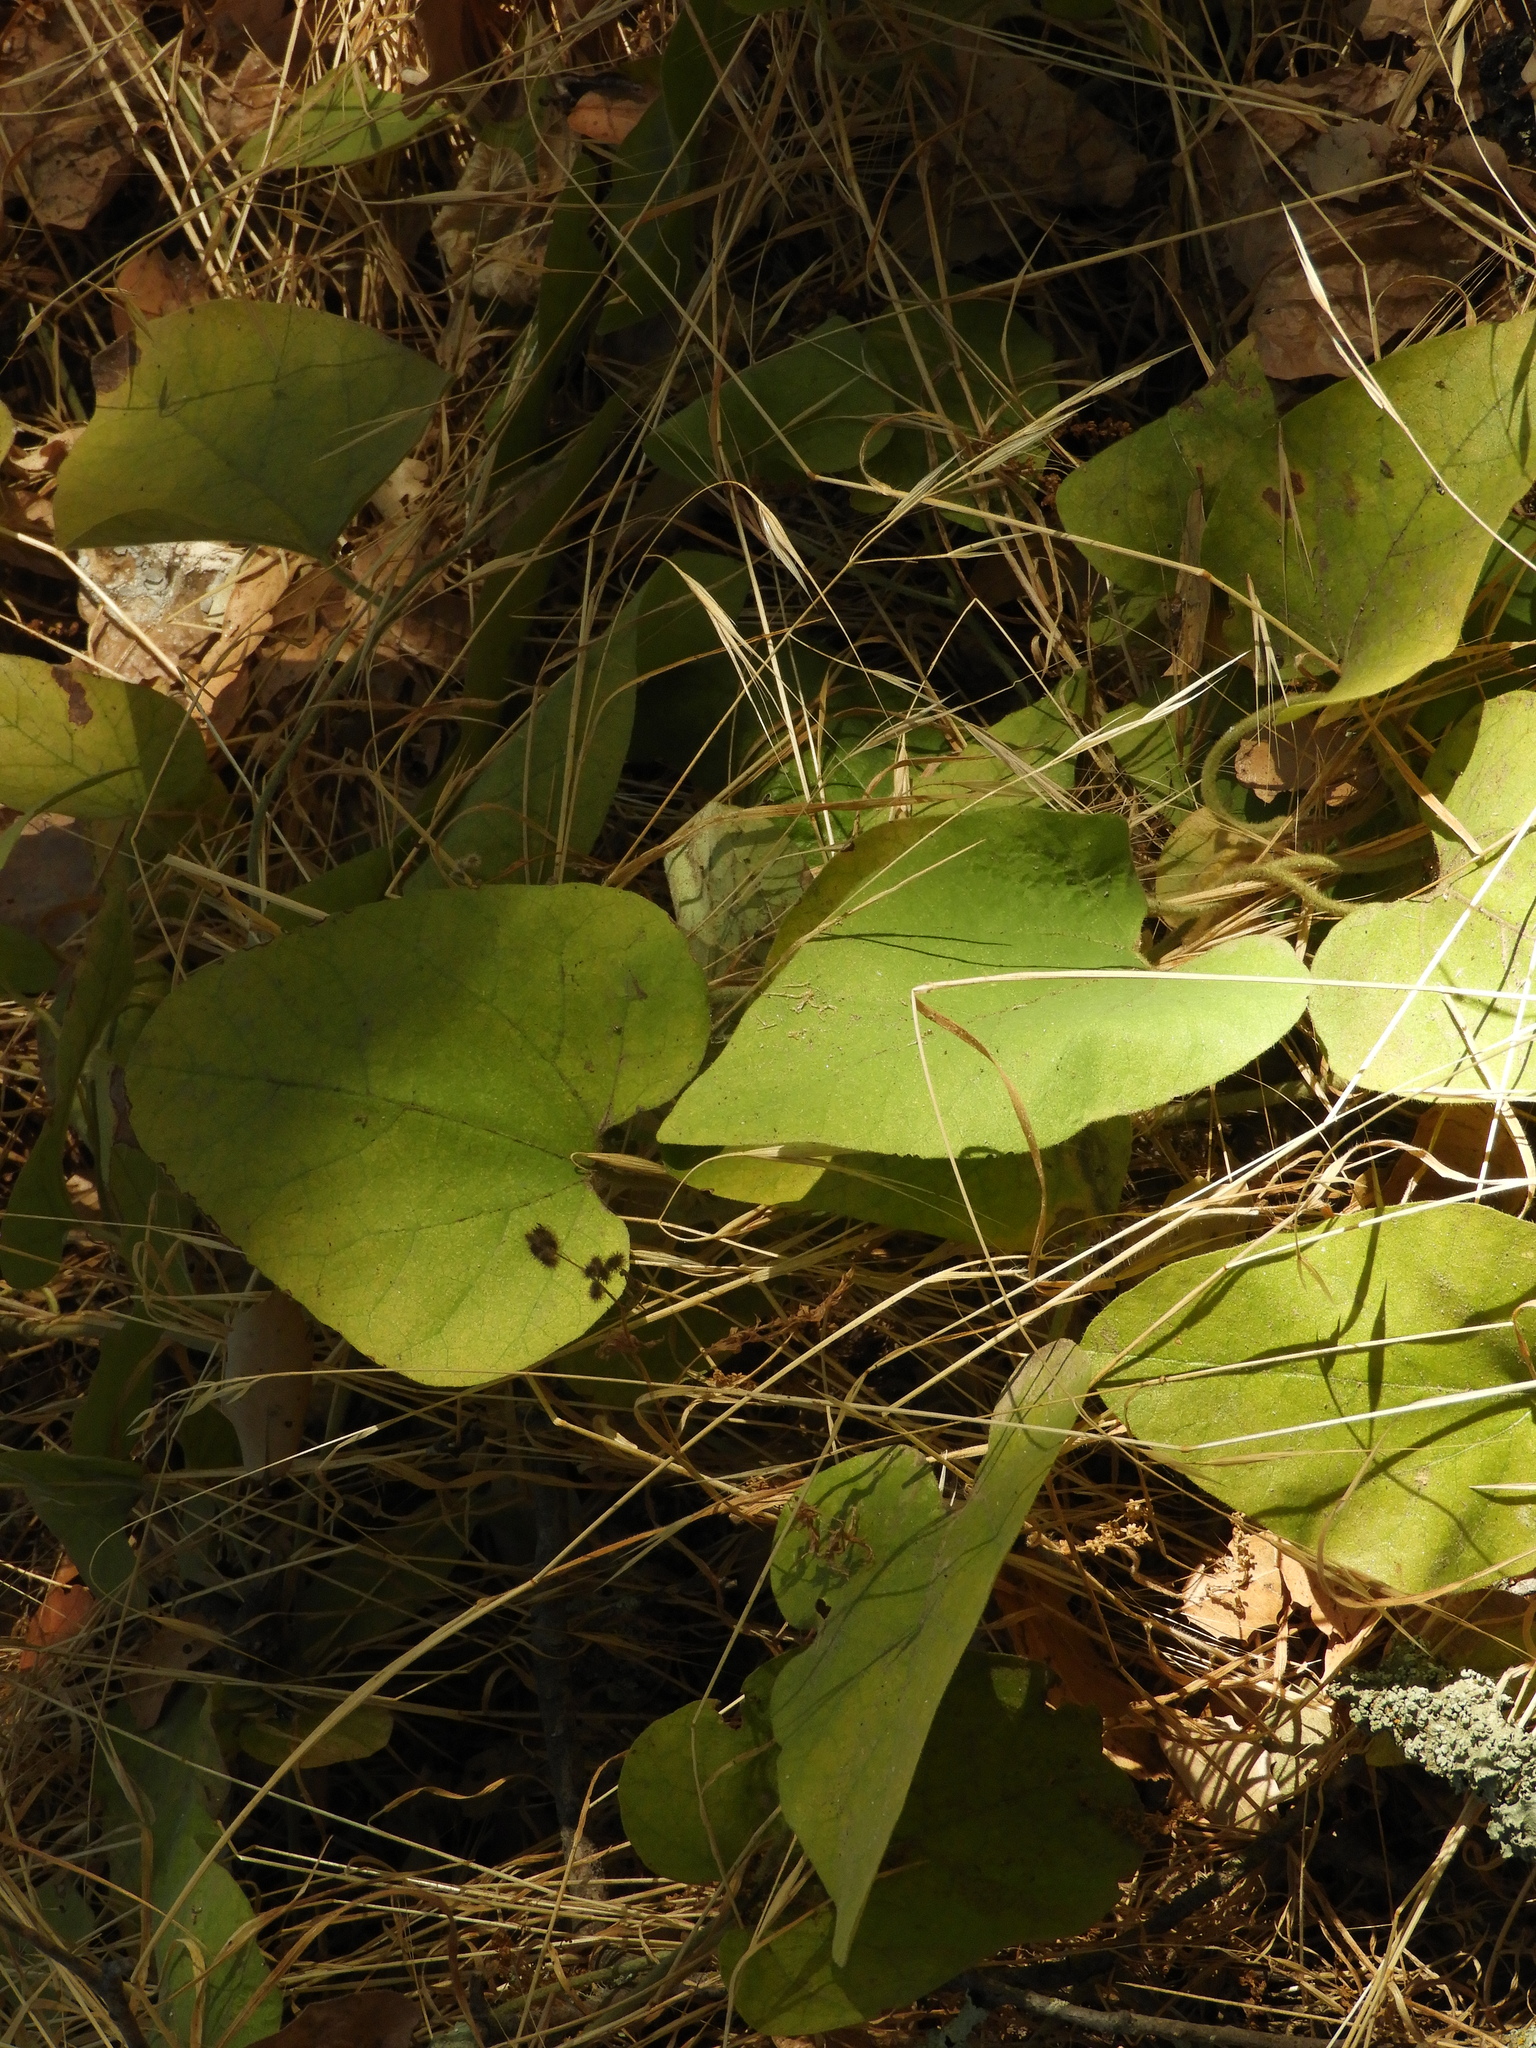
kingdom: Plantae
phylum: Tracheophyta
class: Magnoliopsida
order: Piperales
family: Aristolochiaceae
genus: Isotrema
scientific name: Isotrema californicum
